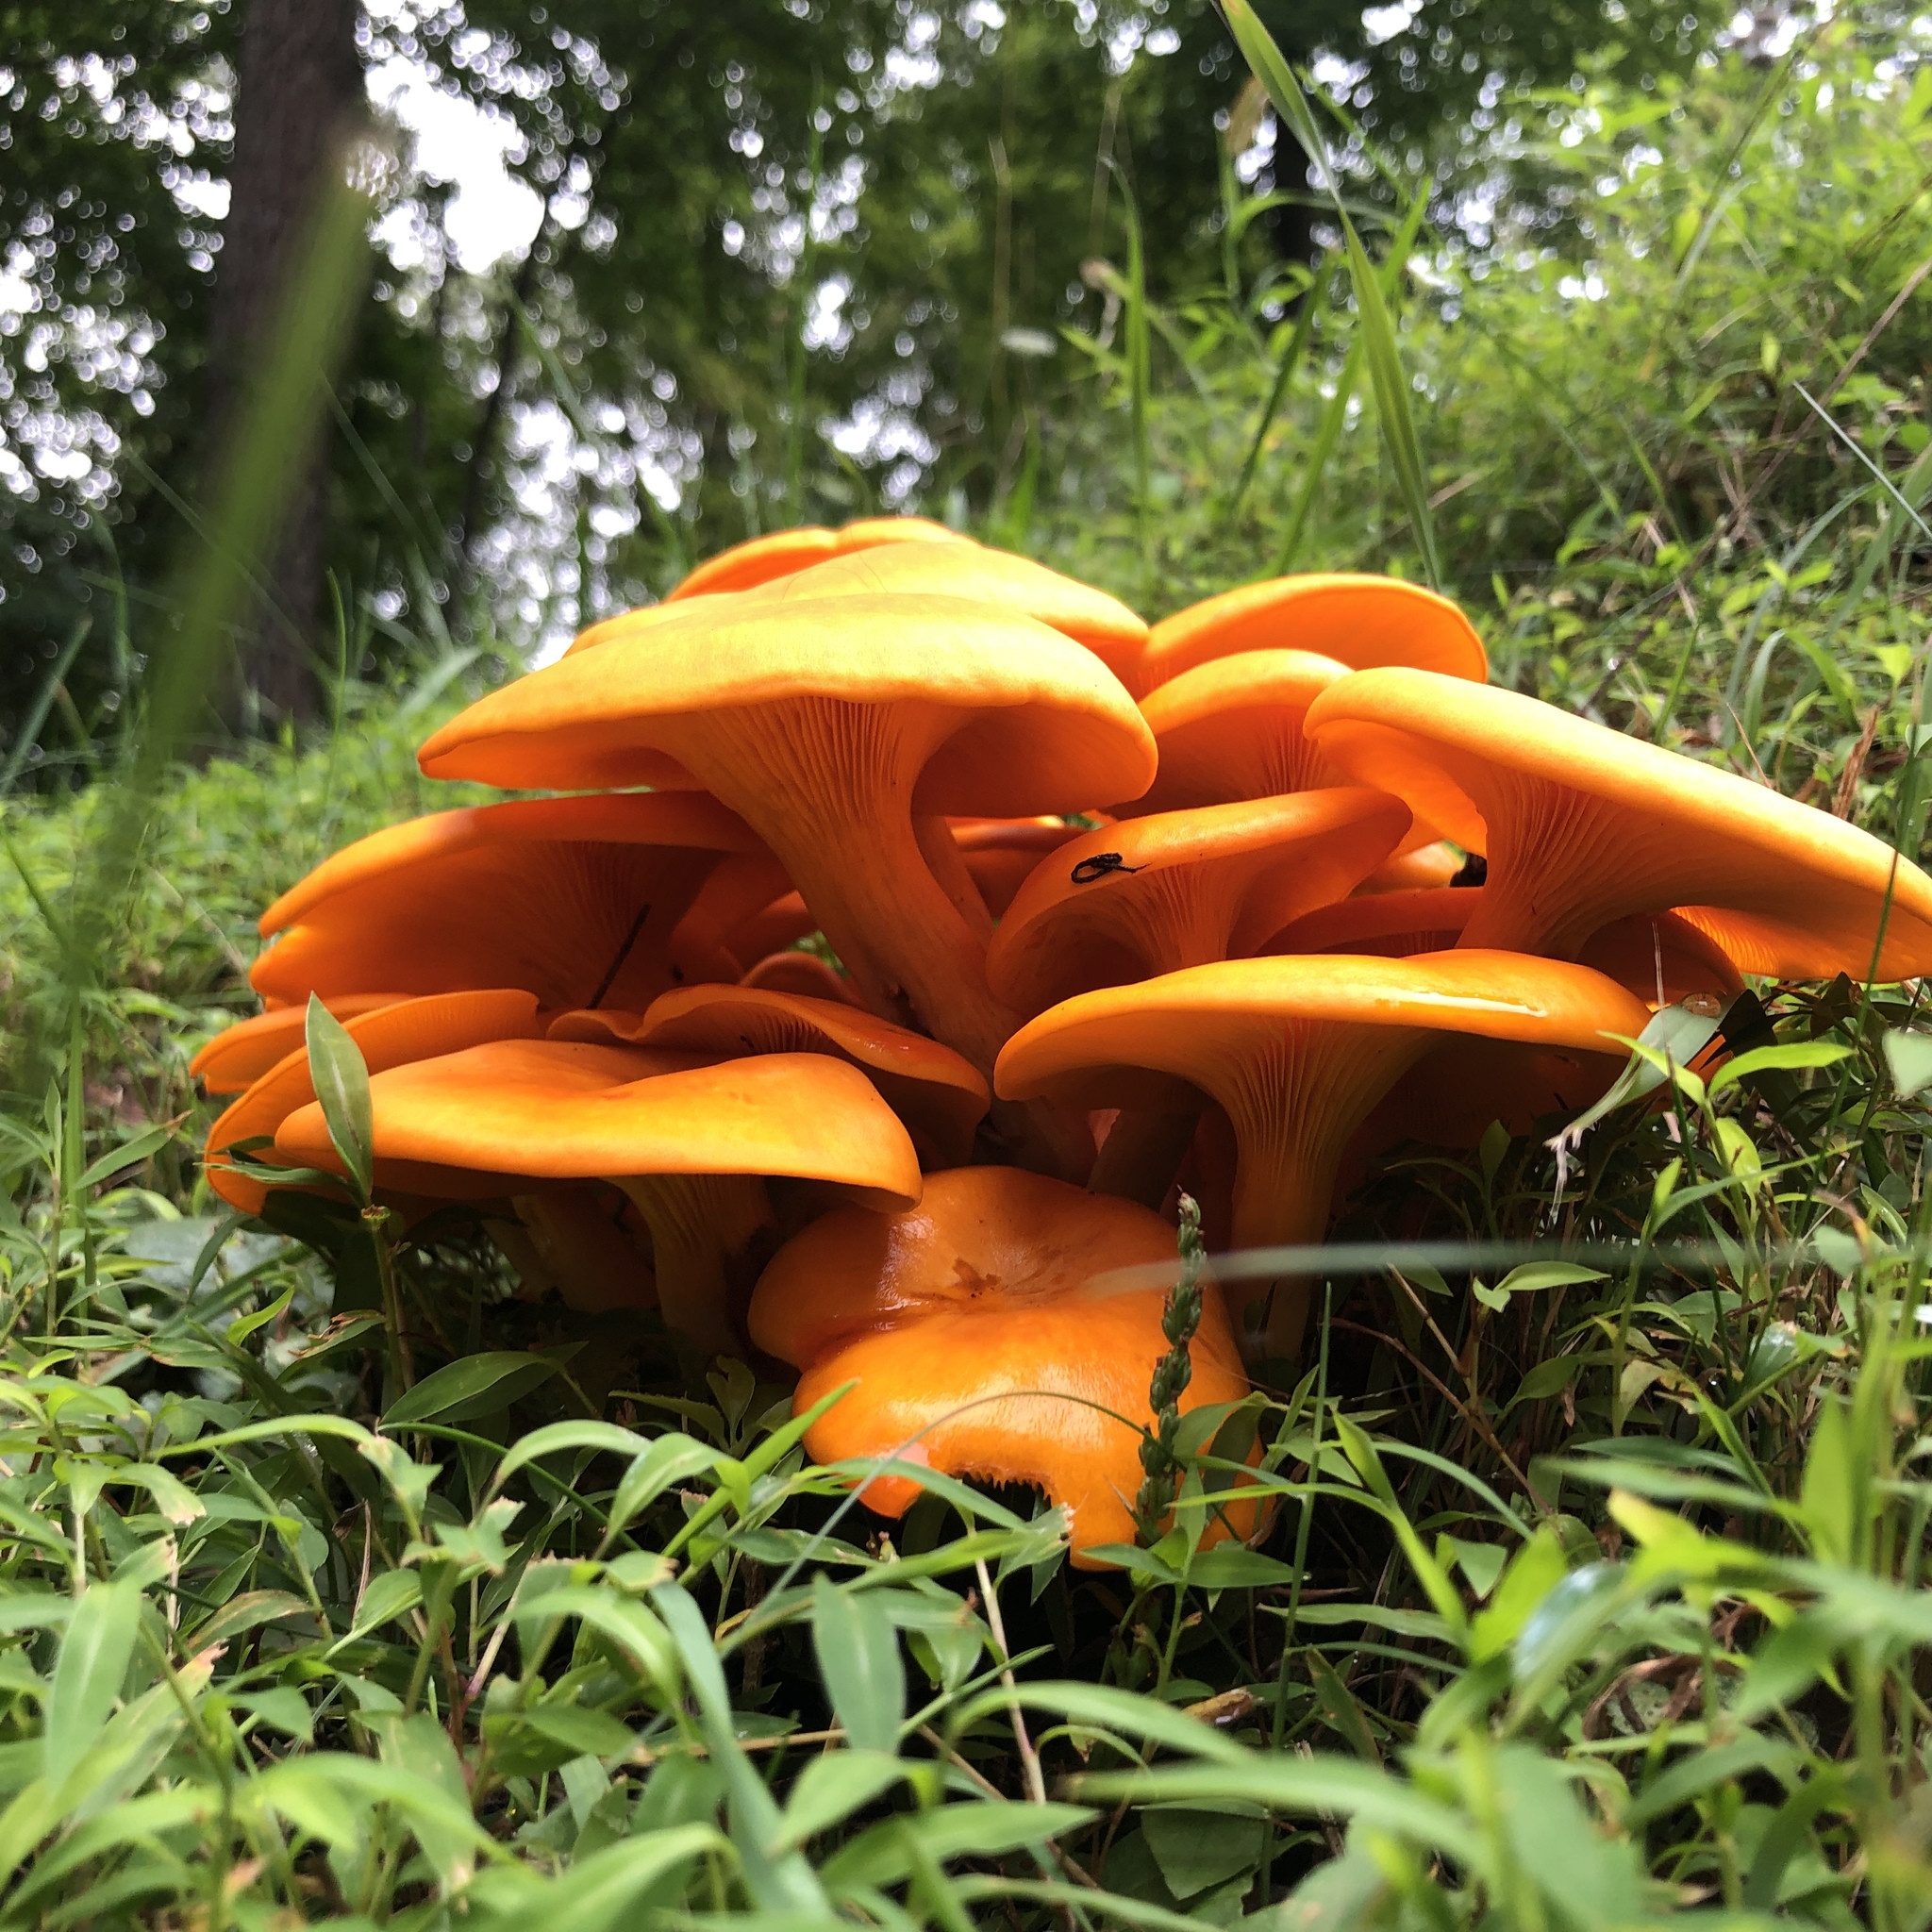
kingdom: Fungi
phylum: Basidiomycota
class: Agaricomycetes
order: Agaricales
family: Omphalotaceae
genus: Omphalotus
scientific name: Omphalotus illudens
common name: Jack o lantern
